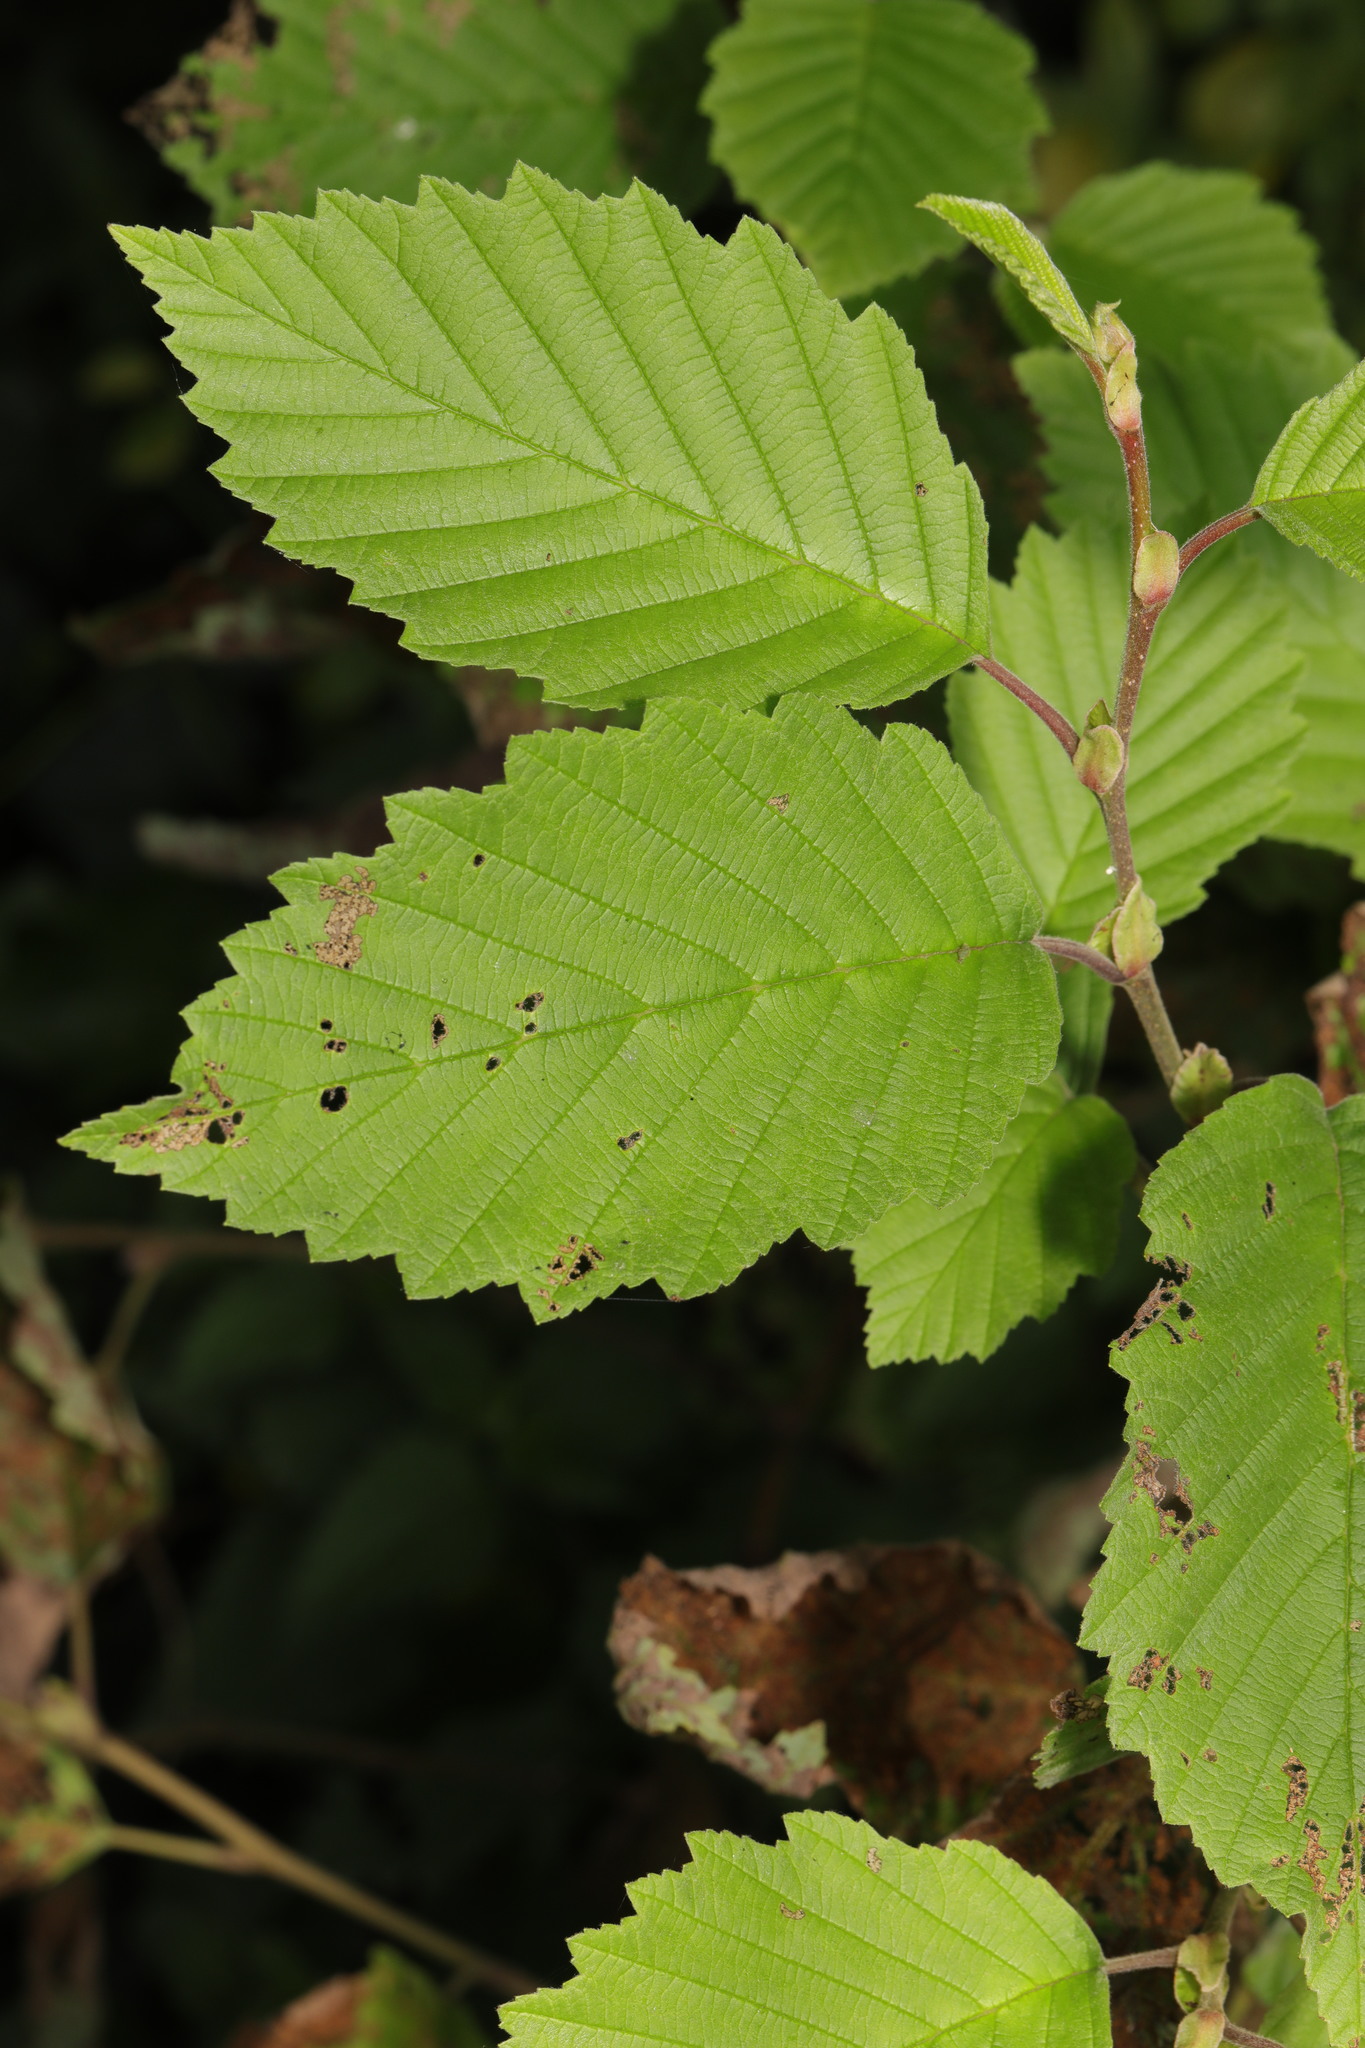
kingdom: Plantae
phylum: Tracheophyta
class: Magnoliopsida
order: Fagales
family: Betulaceae
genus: Alnus
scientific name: Alnus incana
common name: Grey alder
